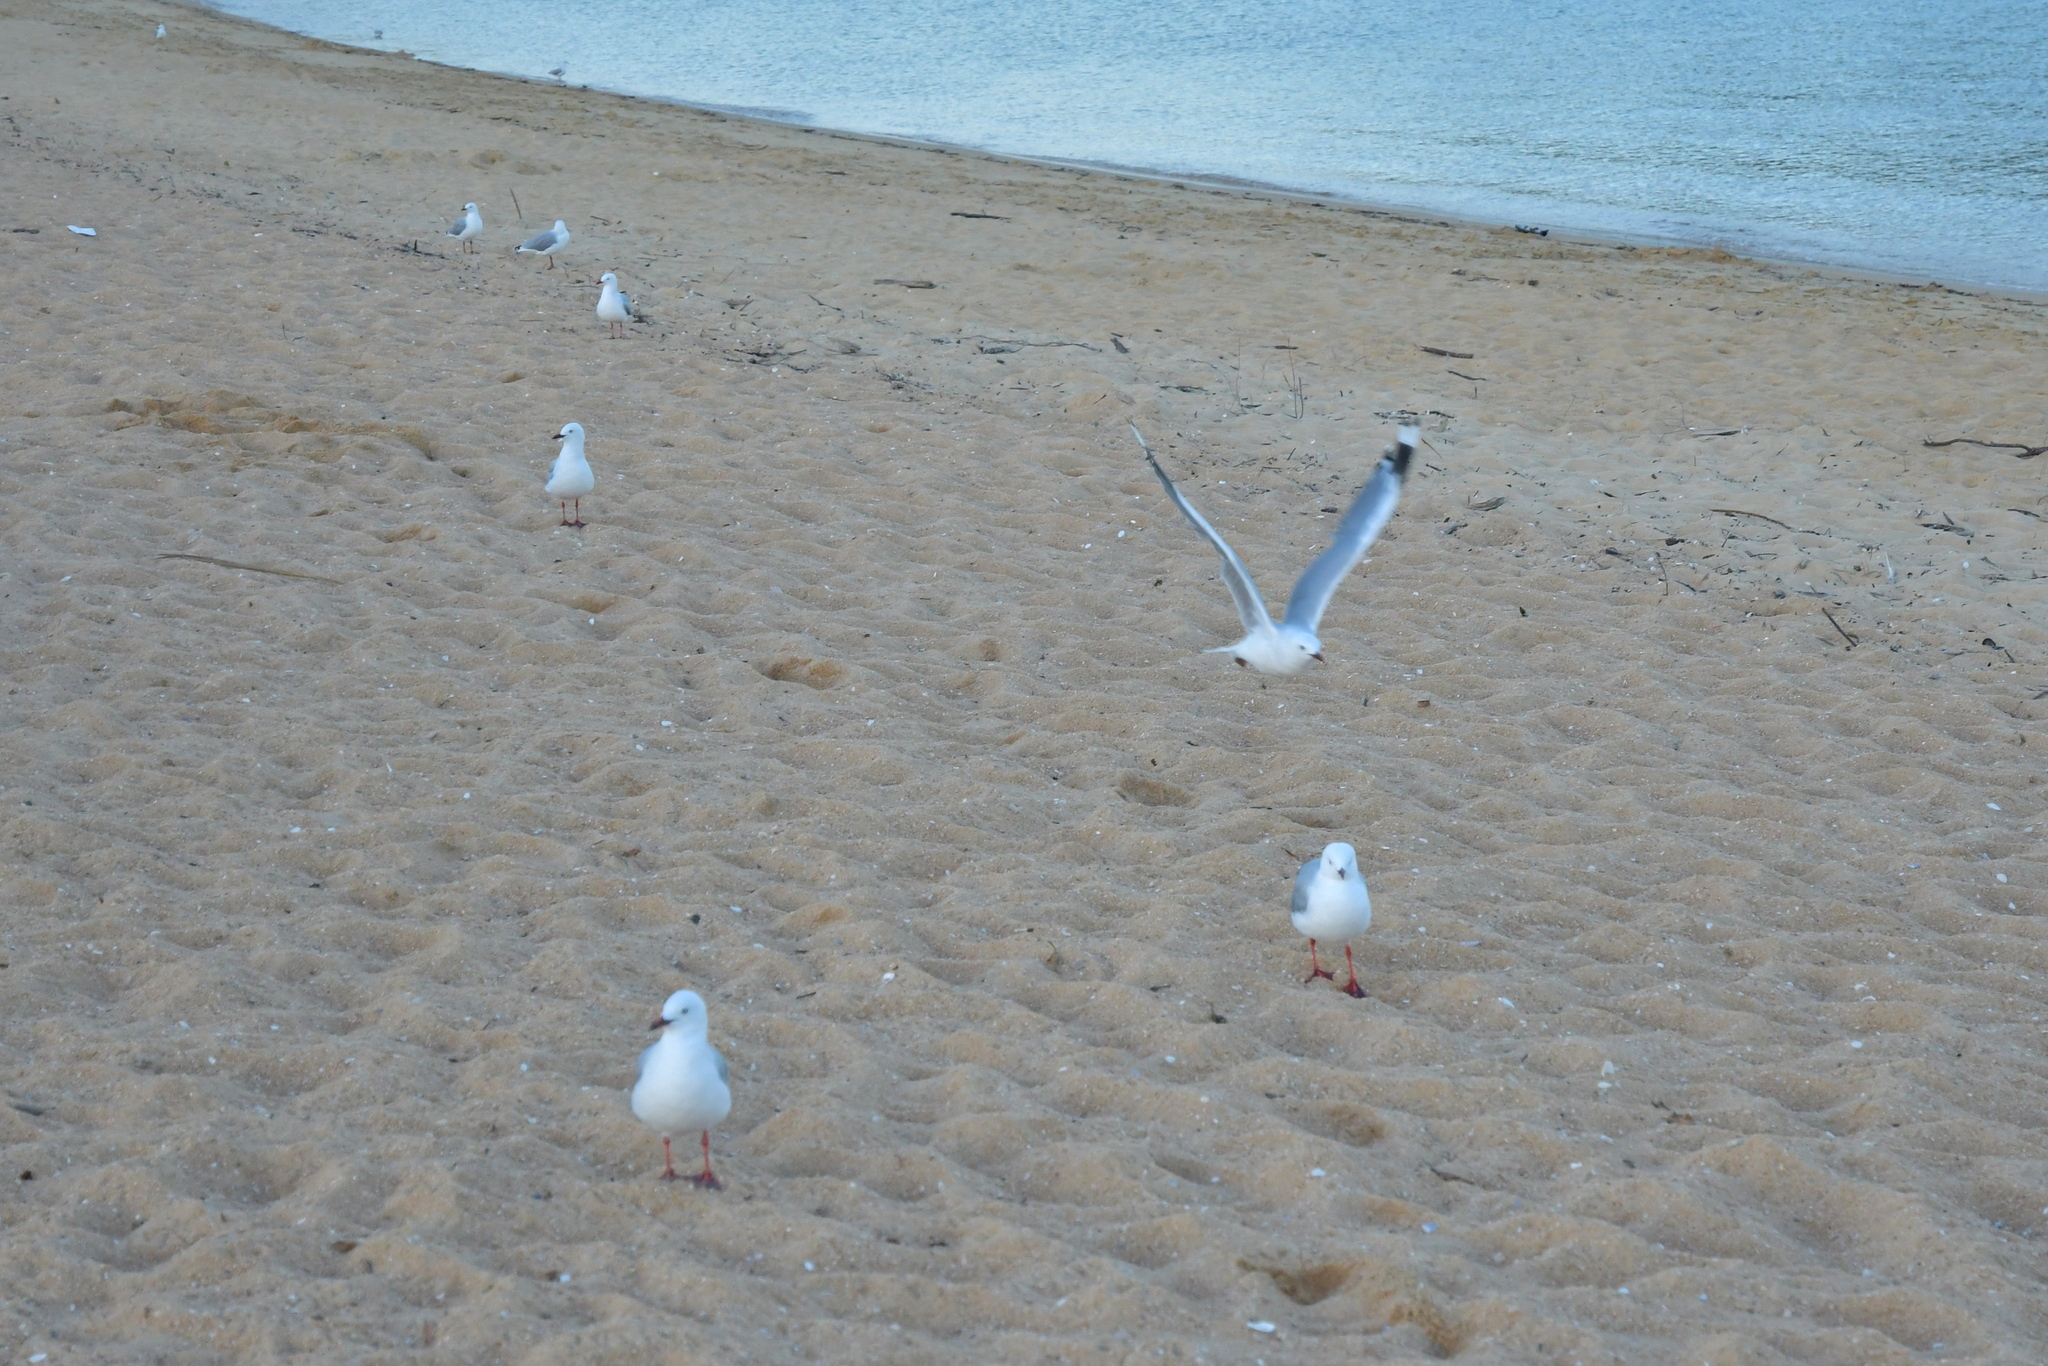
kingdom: Animalia
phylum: Chordata
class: Aves
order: Charadriiformes
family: Laridae
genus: Chroicocephalus
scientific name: Chroicocephalus novaehollandiae
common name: Silver gull
